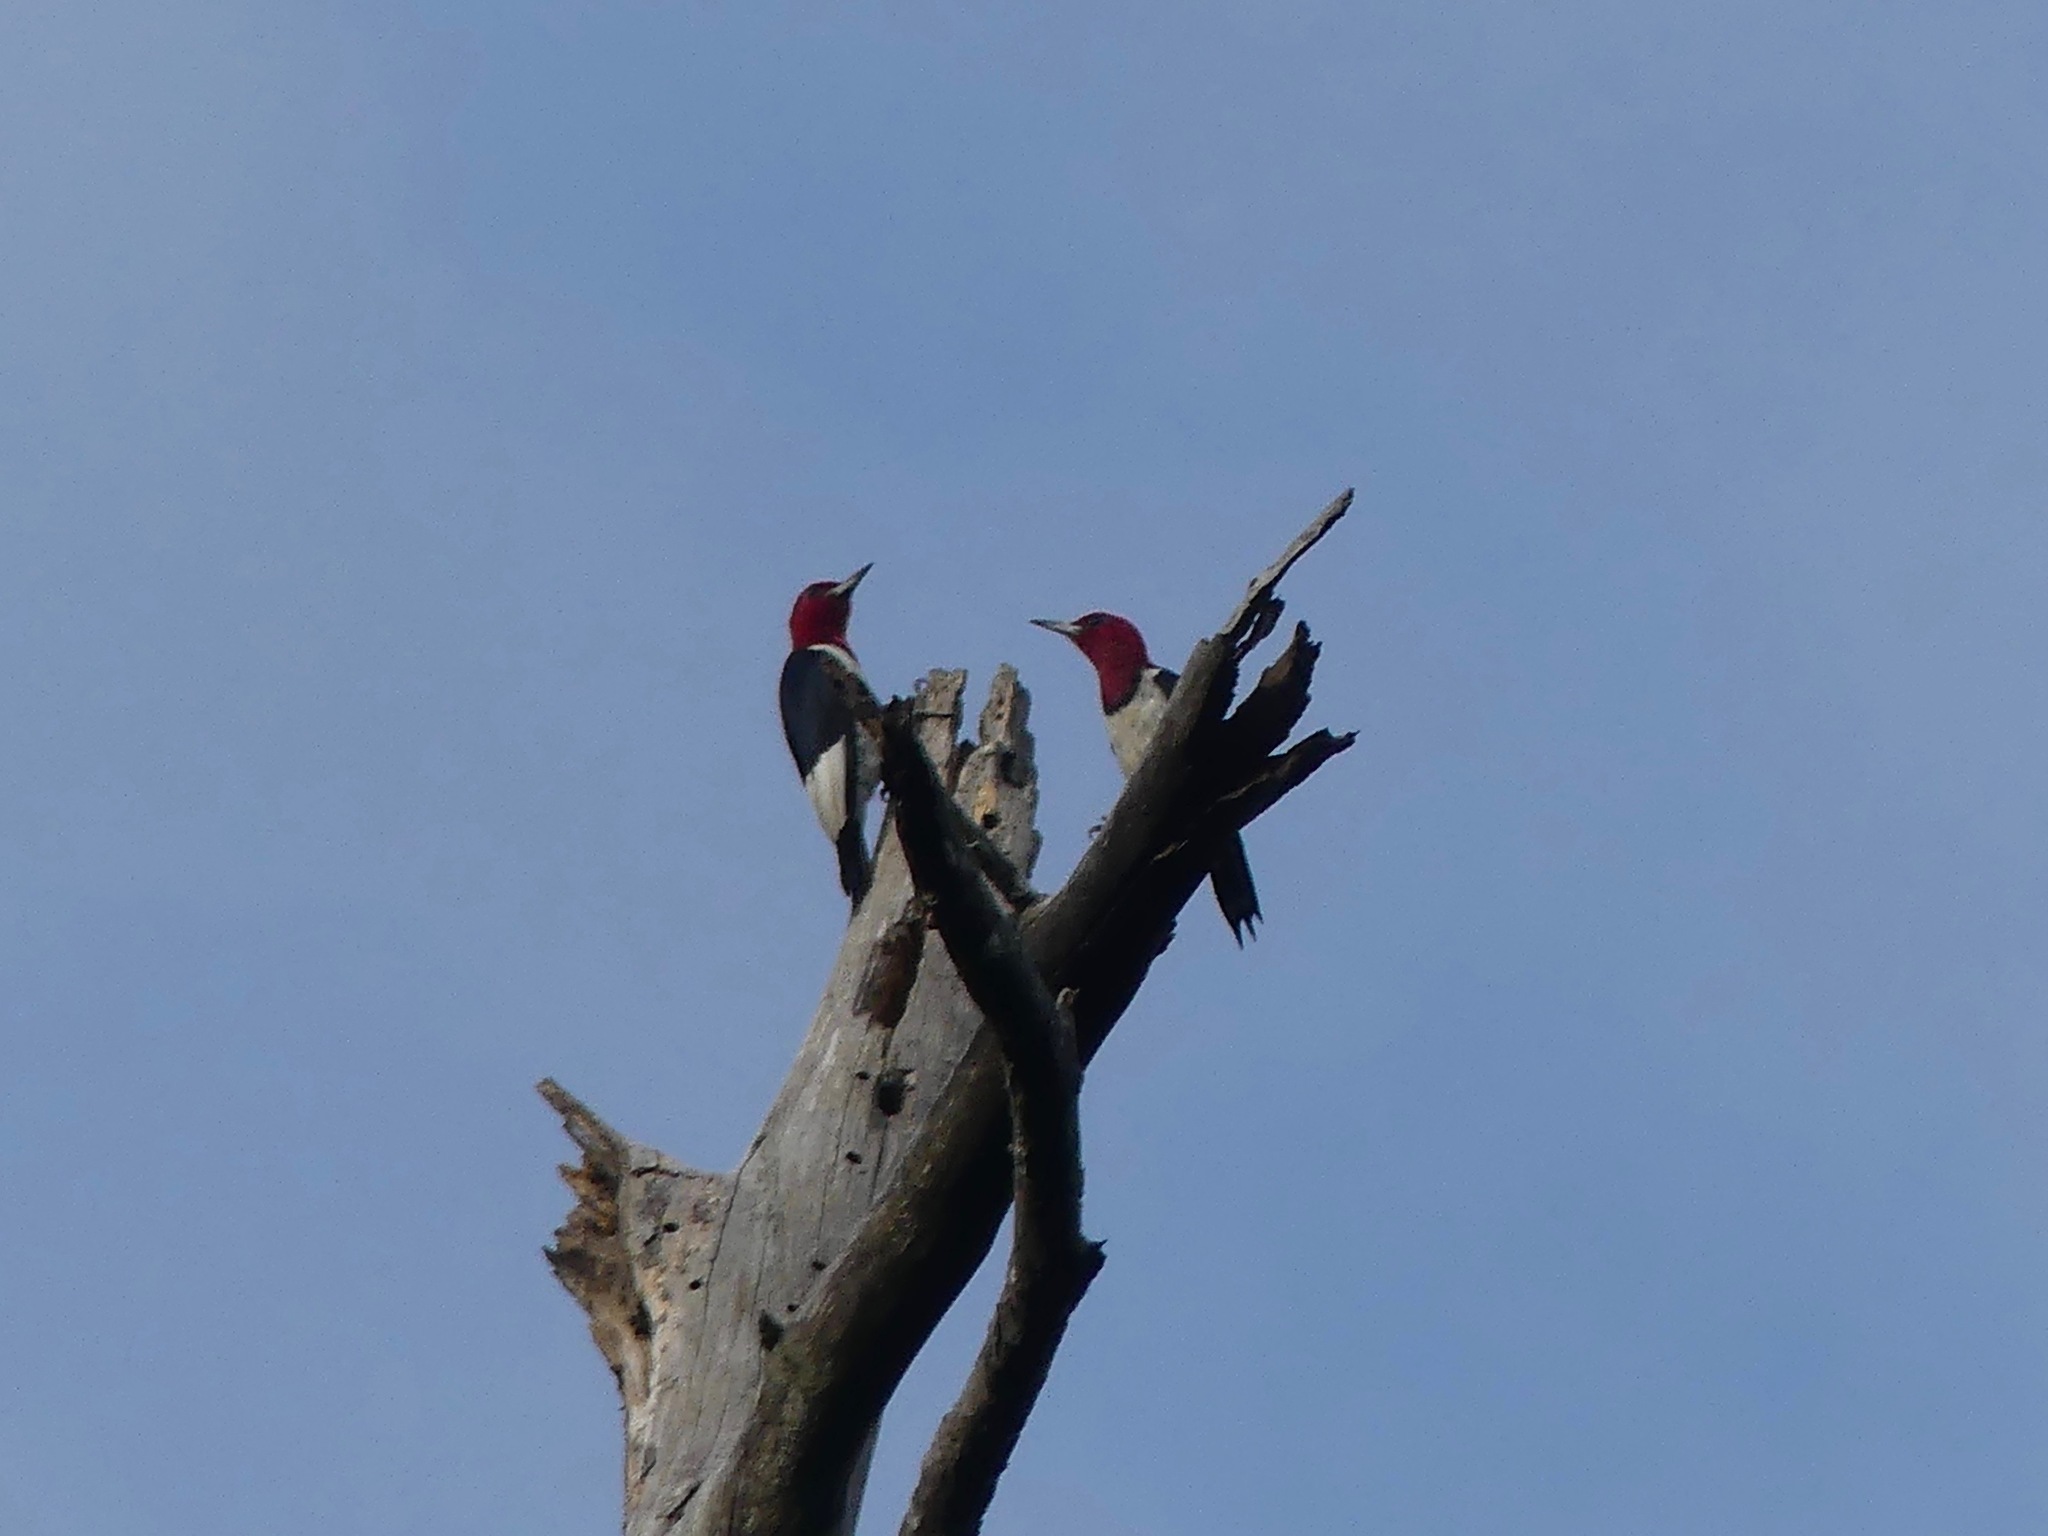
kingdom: Animalia
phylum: Chordata
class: Aves
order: Piciformes
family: Picidae
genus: Melanerpes
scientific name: Melanerpes erythrocephalus
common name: Red-headed woodpecker
